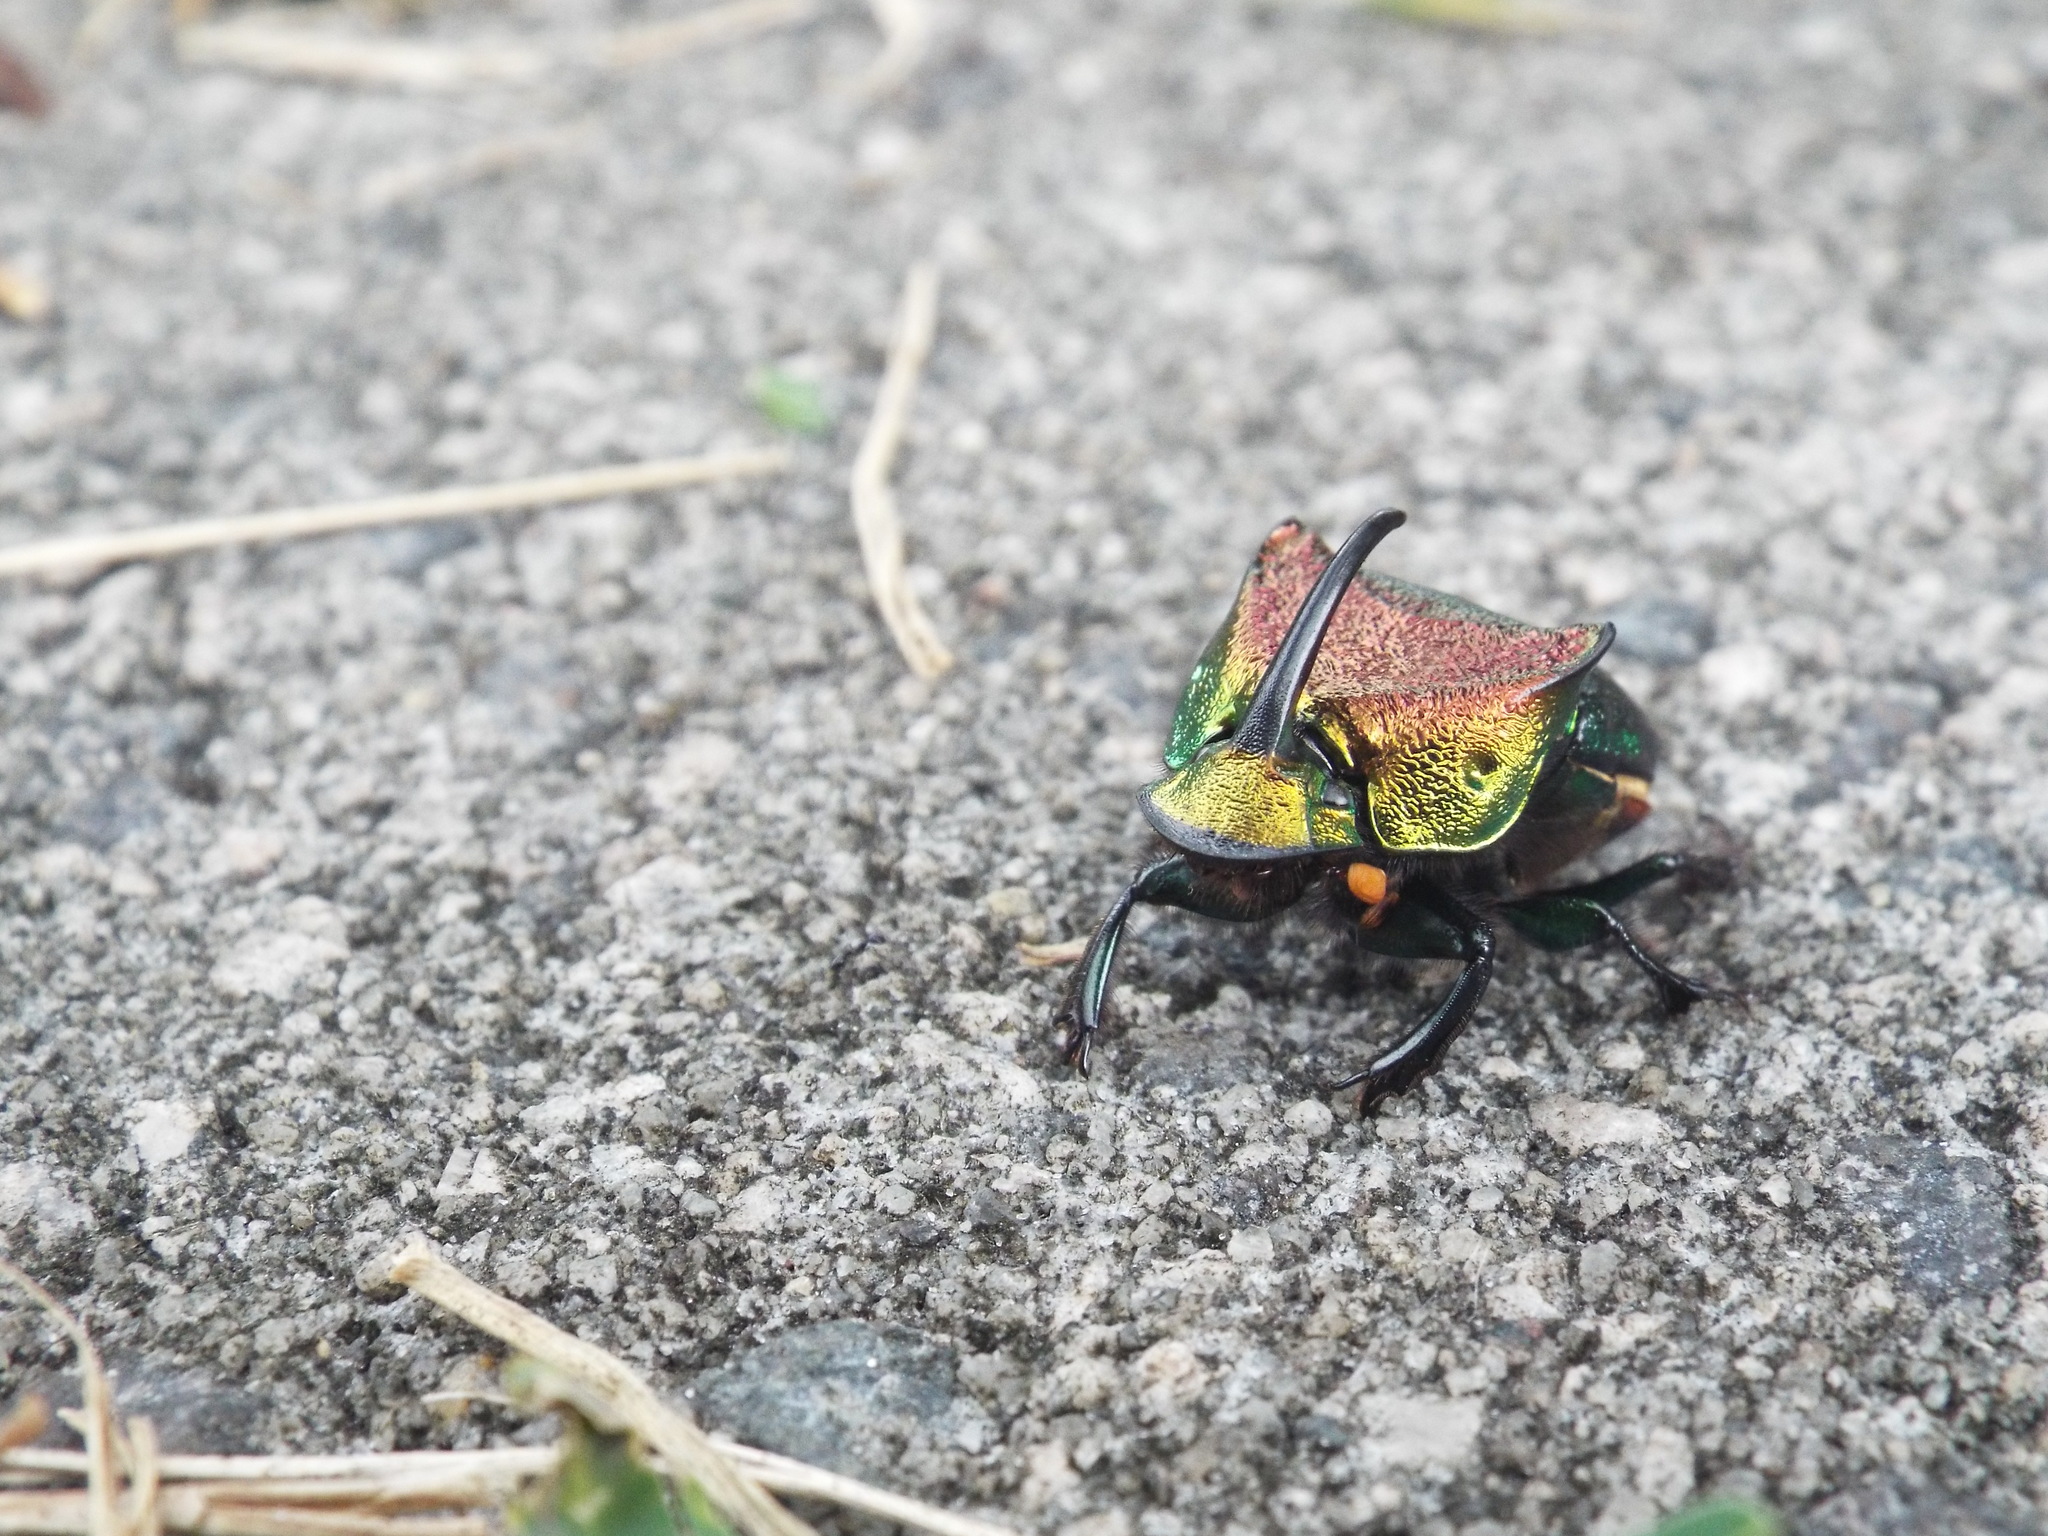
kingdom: Animalia
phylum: Arthropoda
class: Insecta
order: Coleoptera
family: Scarabaeidae
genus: Phanaeus
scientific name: Phanaeus vindex
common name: Rainbow scarab
